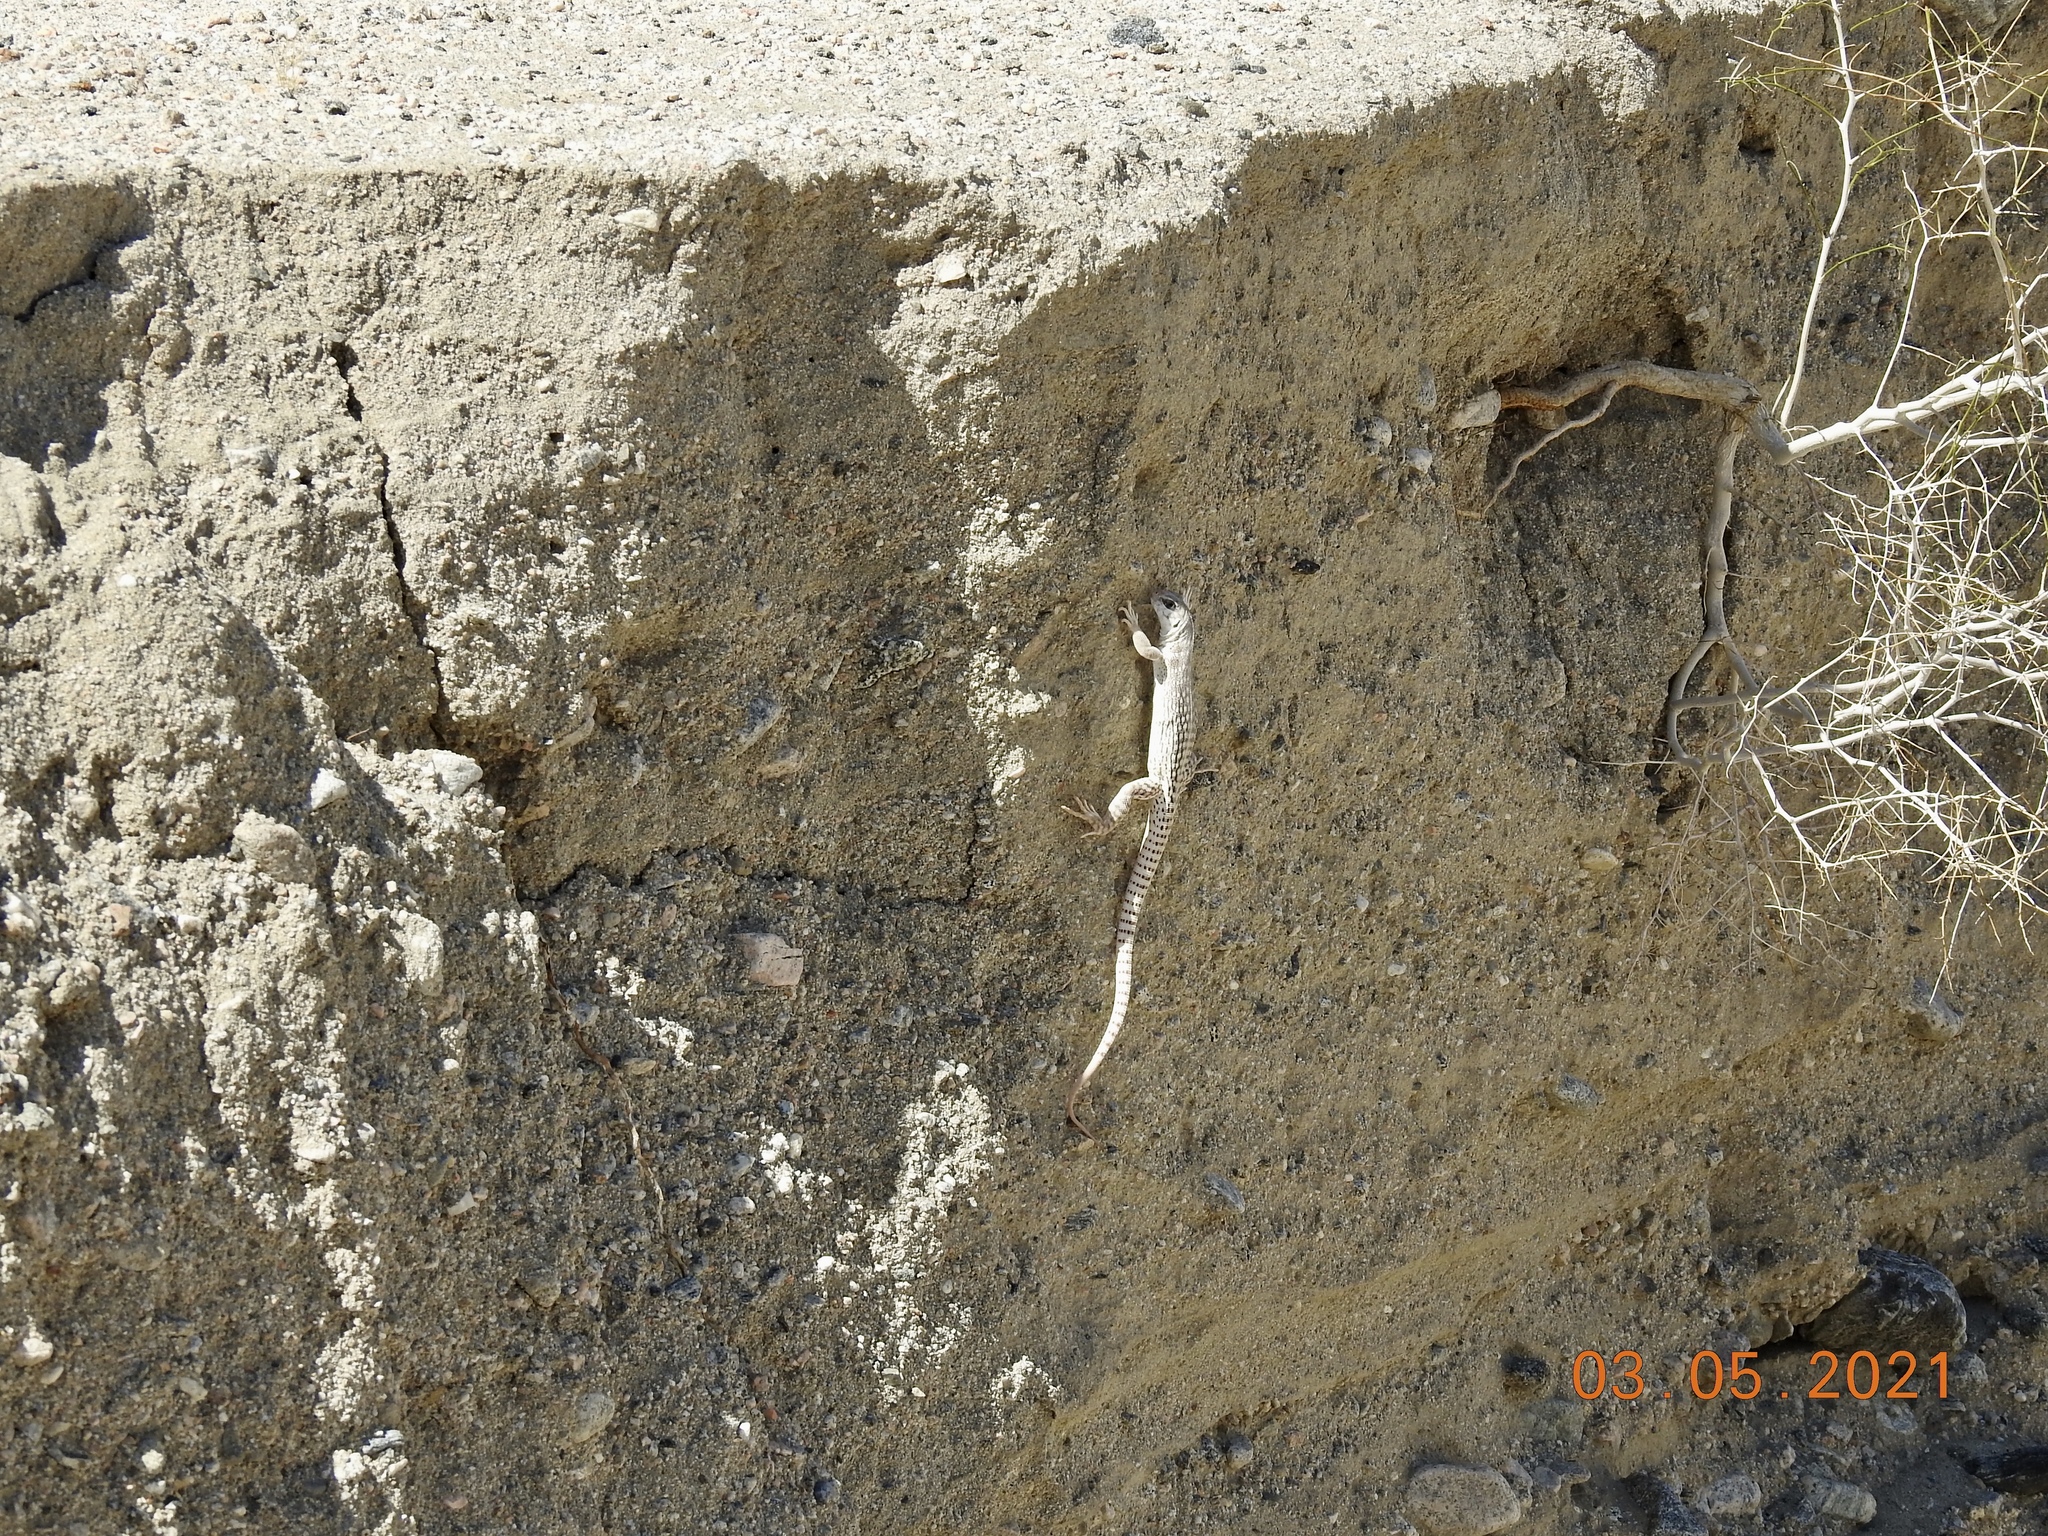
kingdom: Animalia
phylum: Chordata
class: Squamata
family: Iguanidae
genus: Dipsosaurus
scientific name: Dipsosaurus dorsalis
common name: Desert iguana
